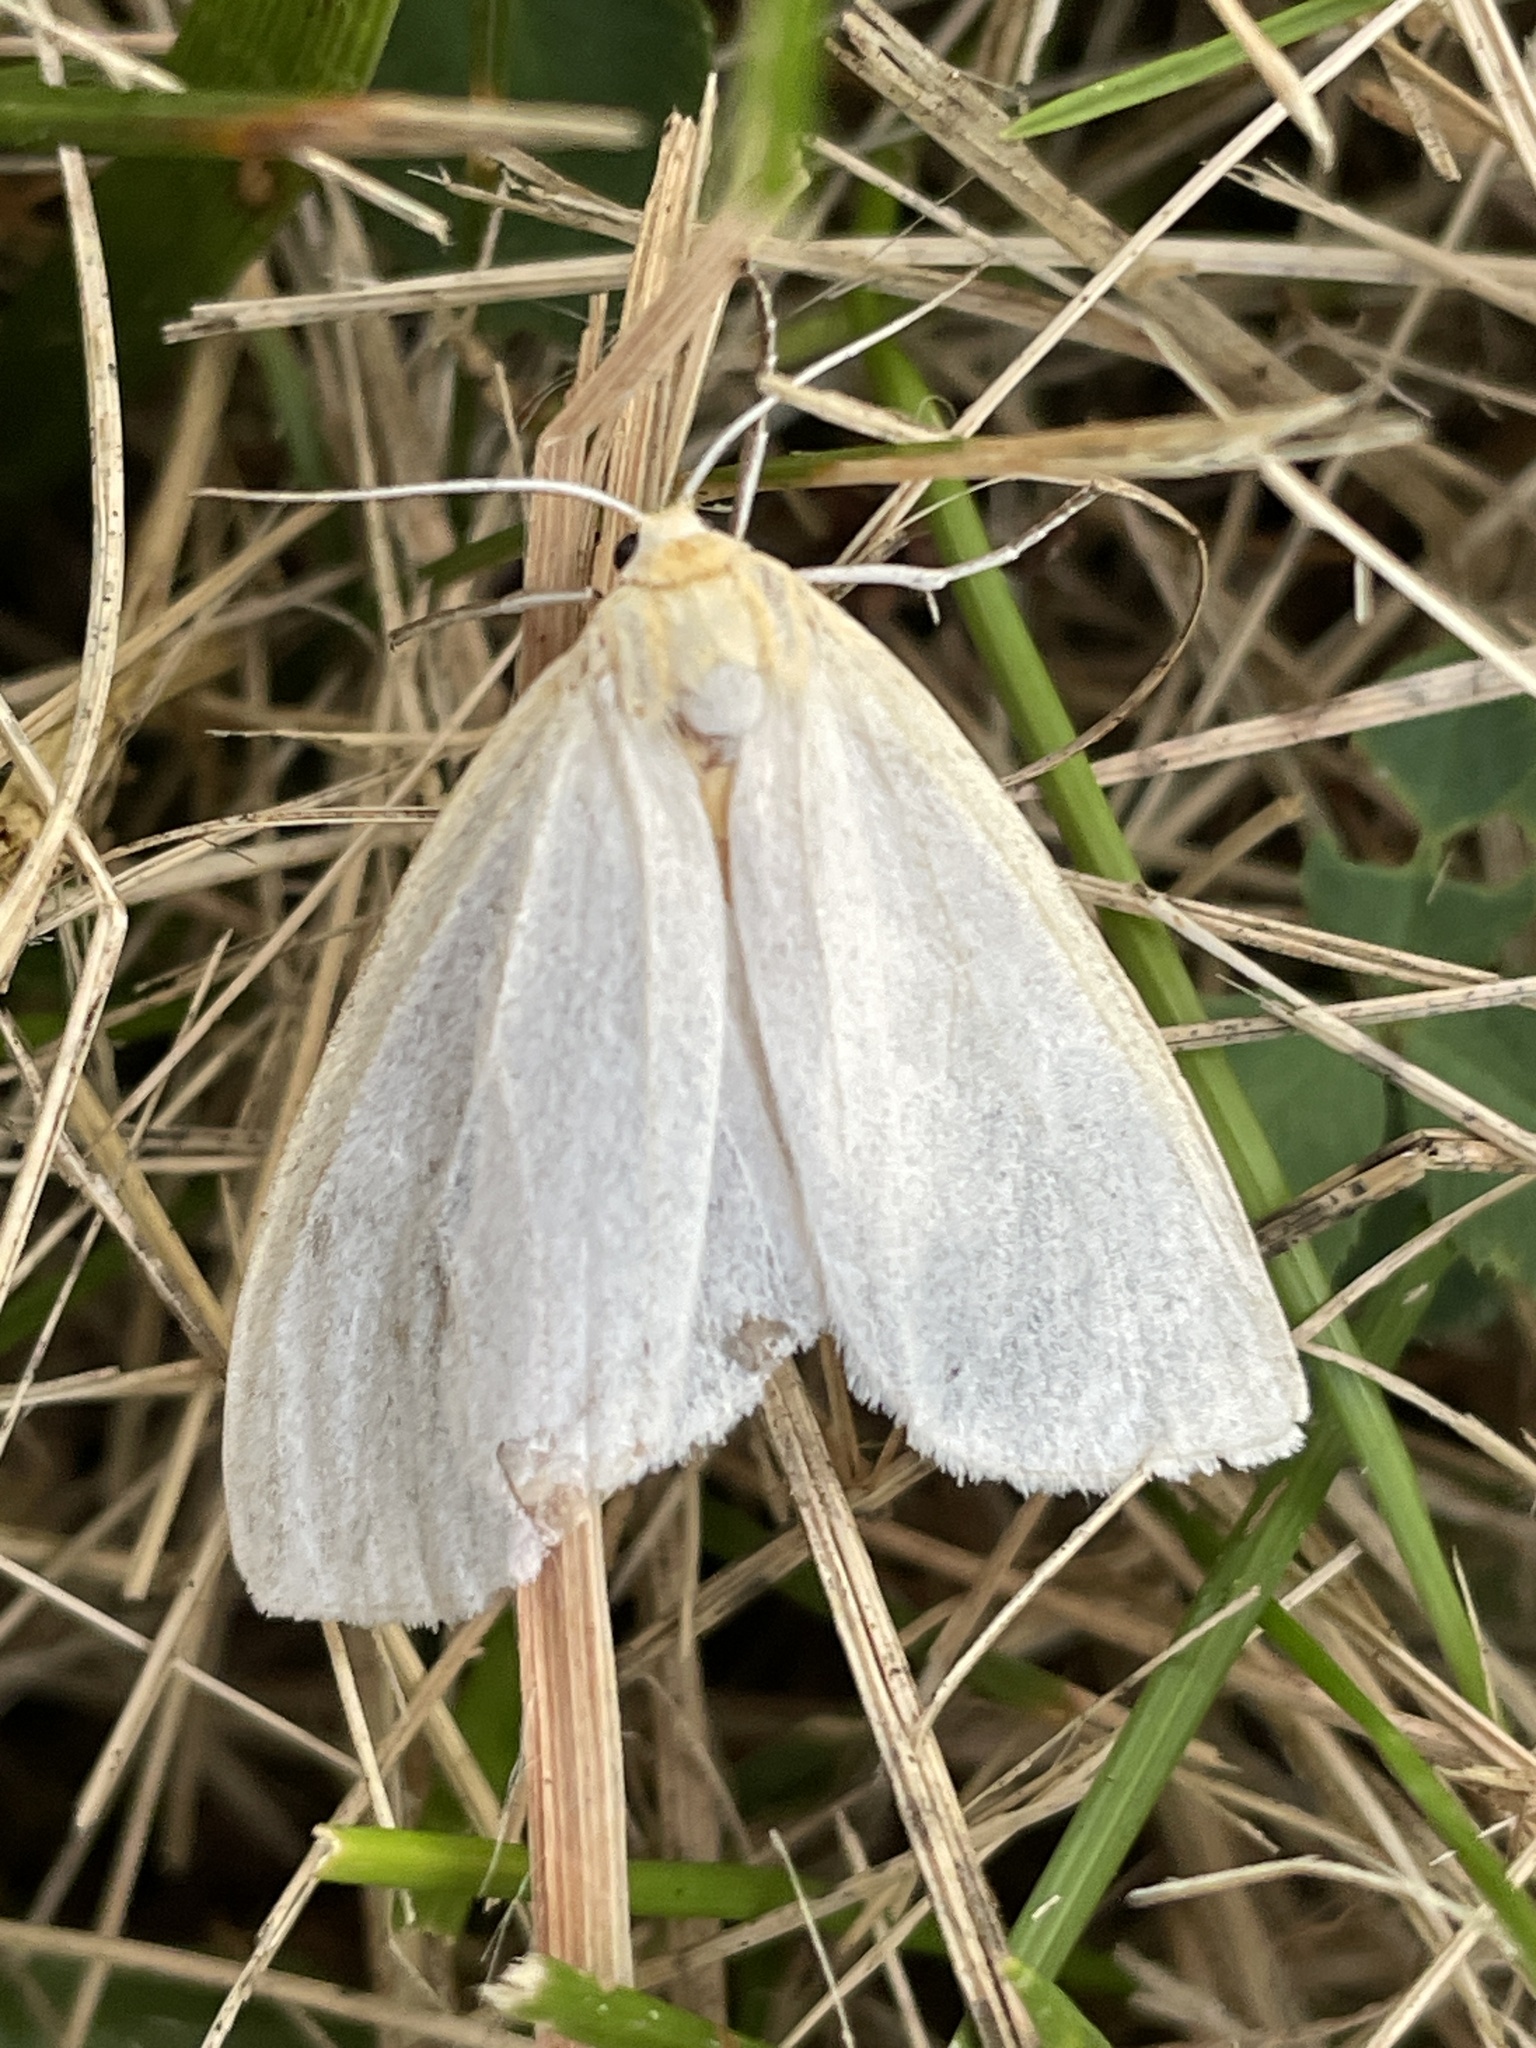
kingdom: Animalia
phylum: Arthropoda
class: Insecta
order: Lepidoptera
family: Erebidae
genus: Cycnia
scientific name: Cycnia tenera
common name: Delicate cycnia moth
